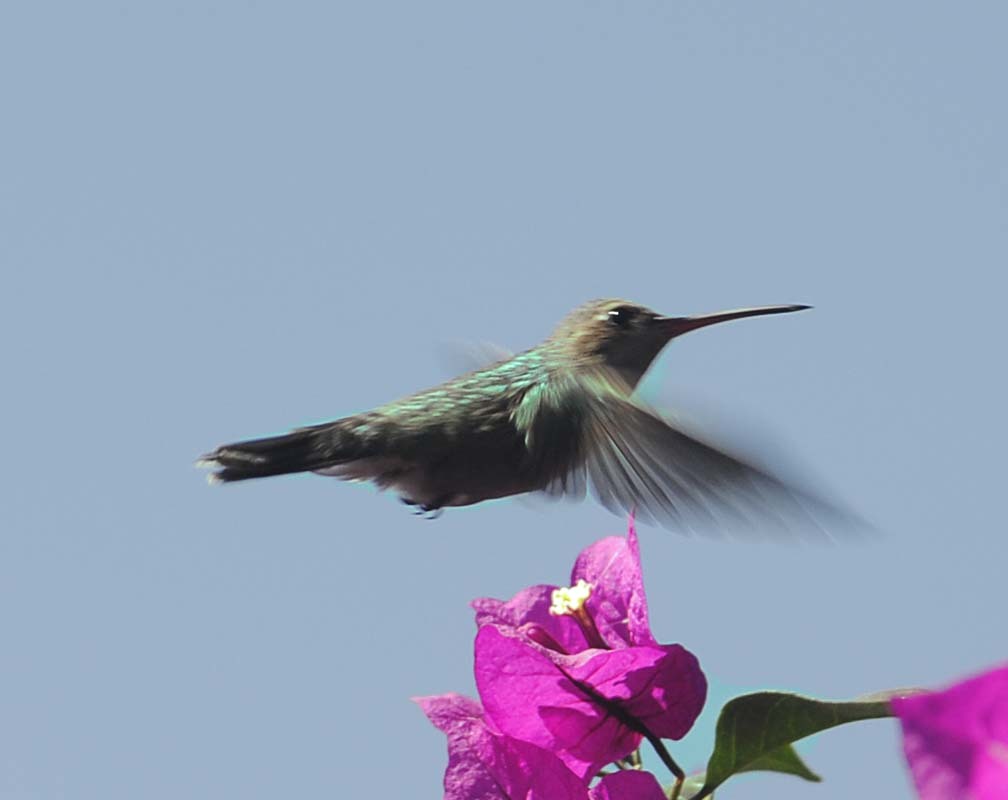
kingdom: Animalia
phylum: Chordata
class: Aves
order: Apodiformes
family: Trochilidae
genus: Cynanthus
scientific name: Cynanthus latirostris
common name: Broad-billed hummingbird
